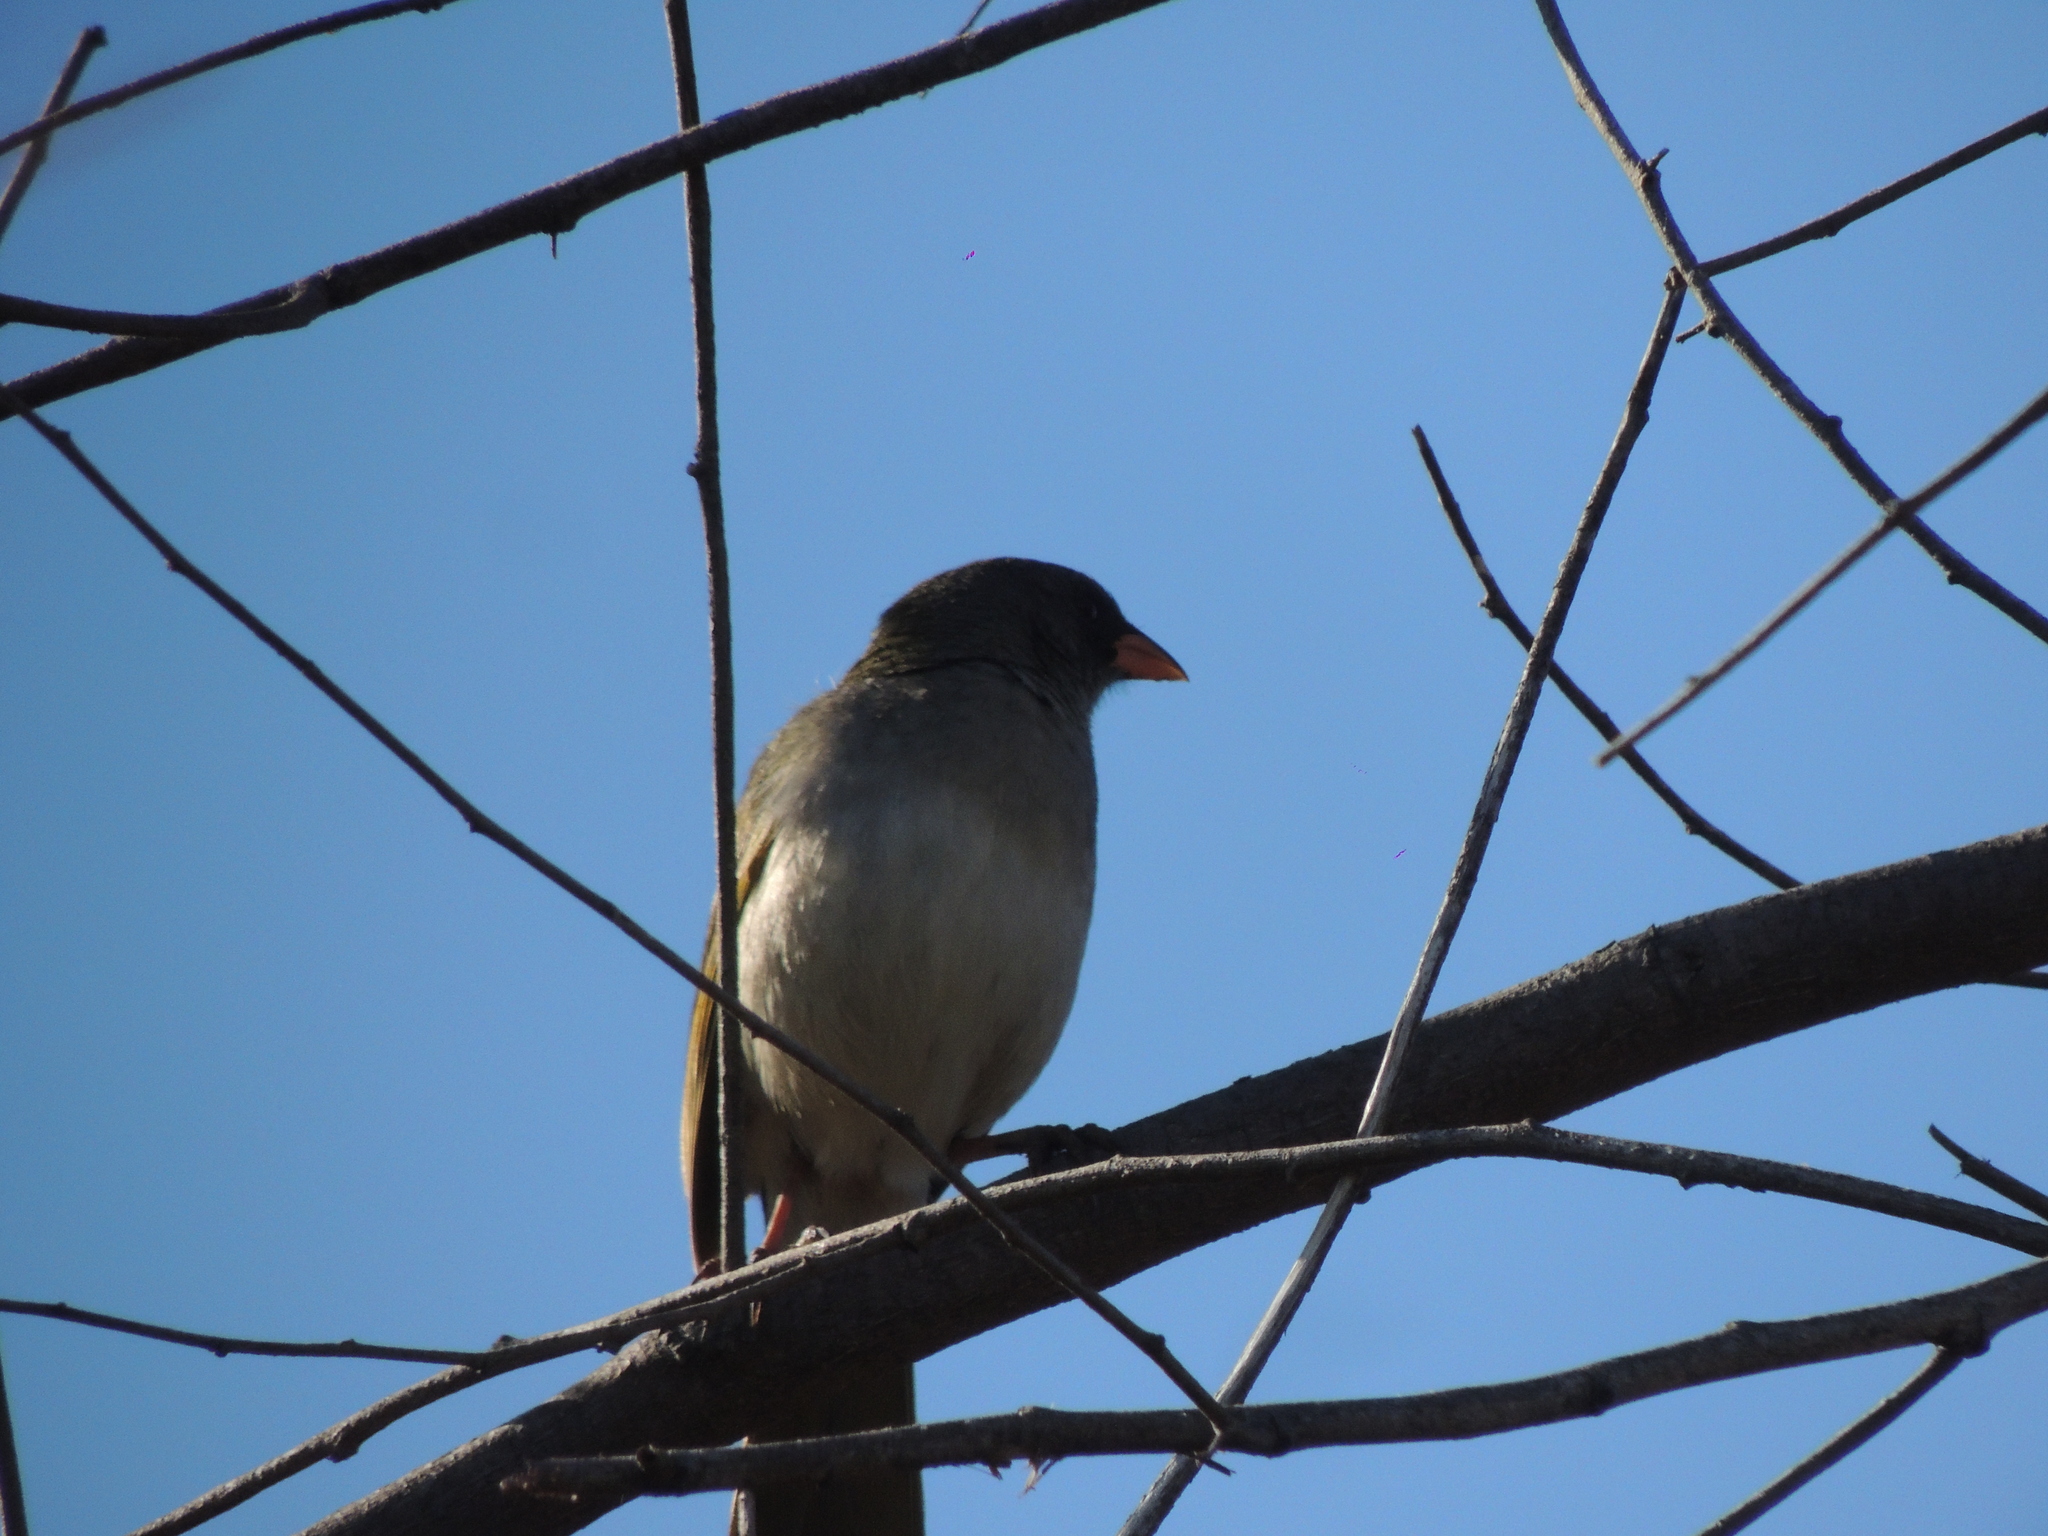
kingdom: Animalia
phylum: Chordata
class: Aves
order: Passeriformes
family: Thraupidae
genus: Embernagra
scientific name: Embernagra platensis
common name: Pampa finch
